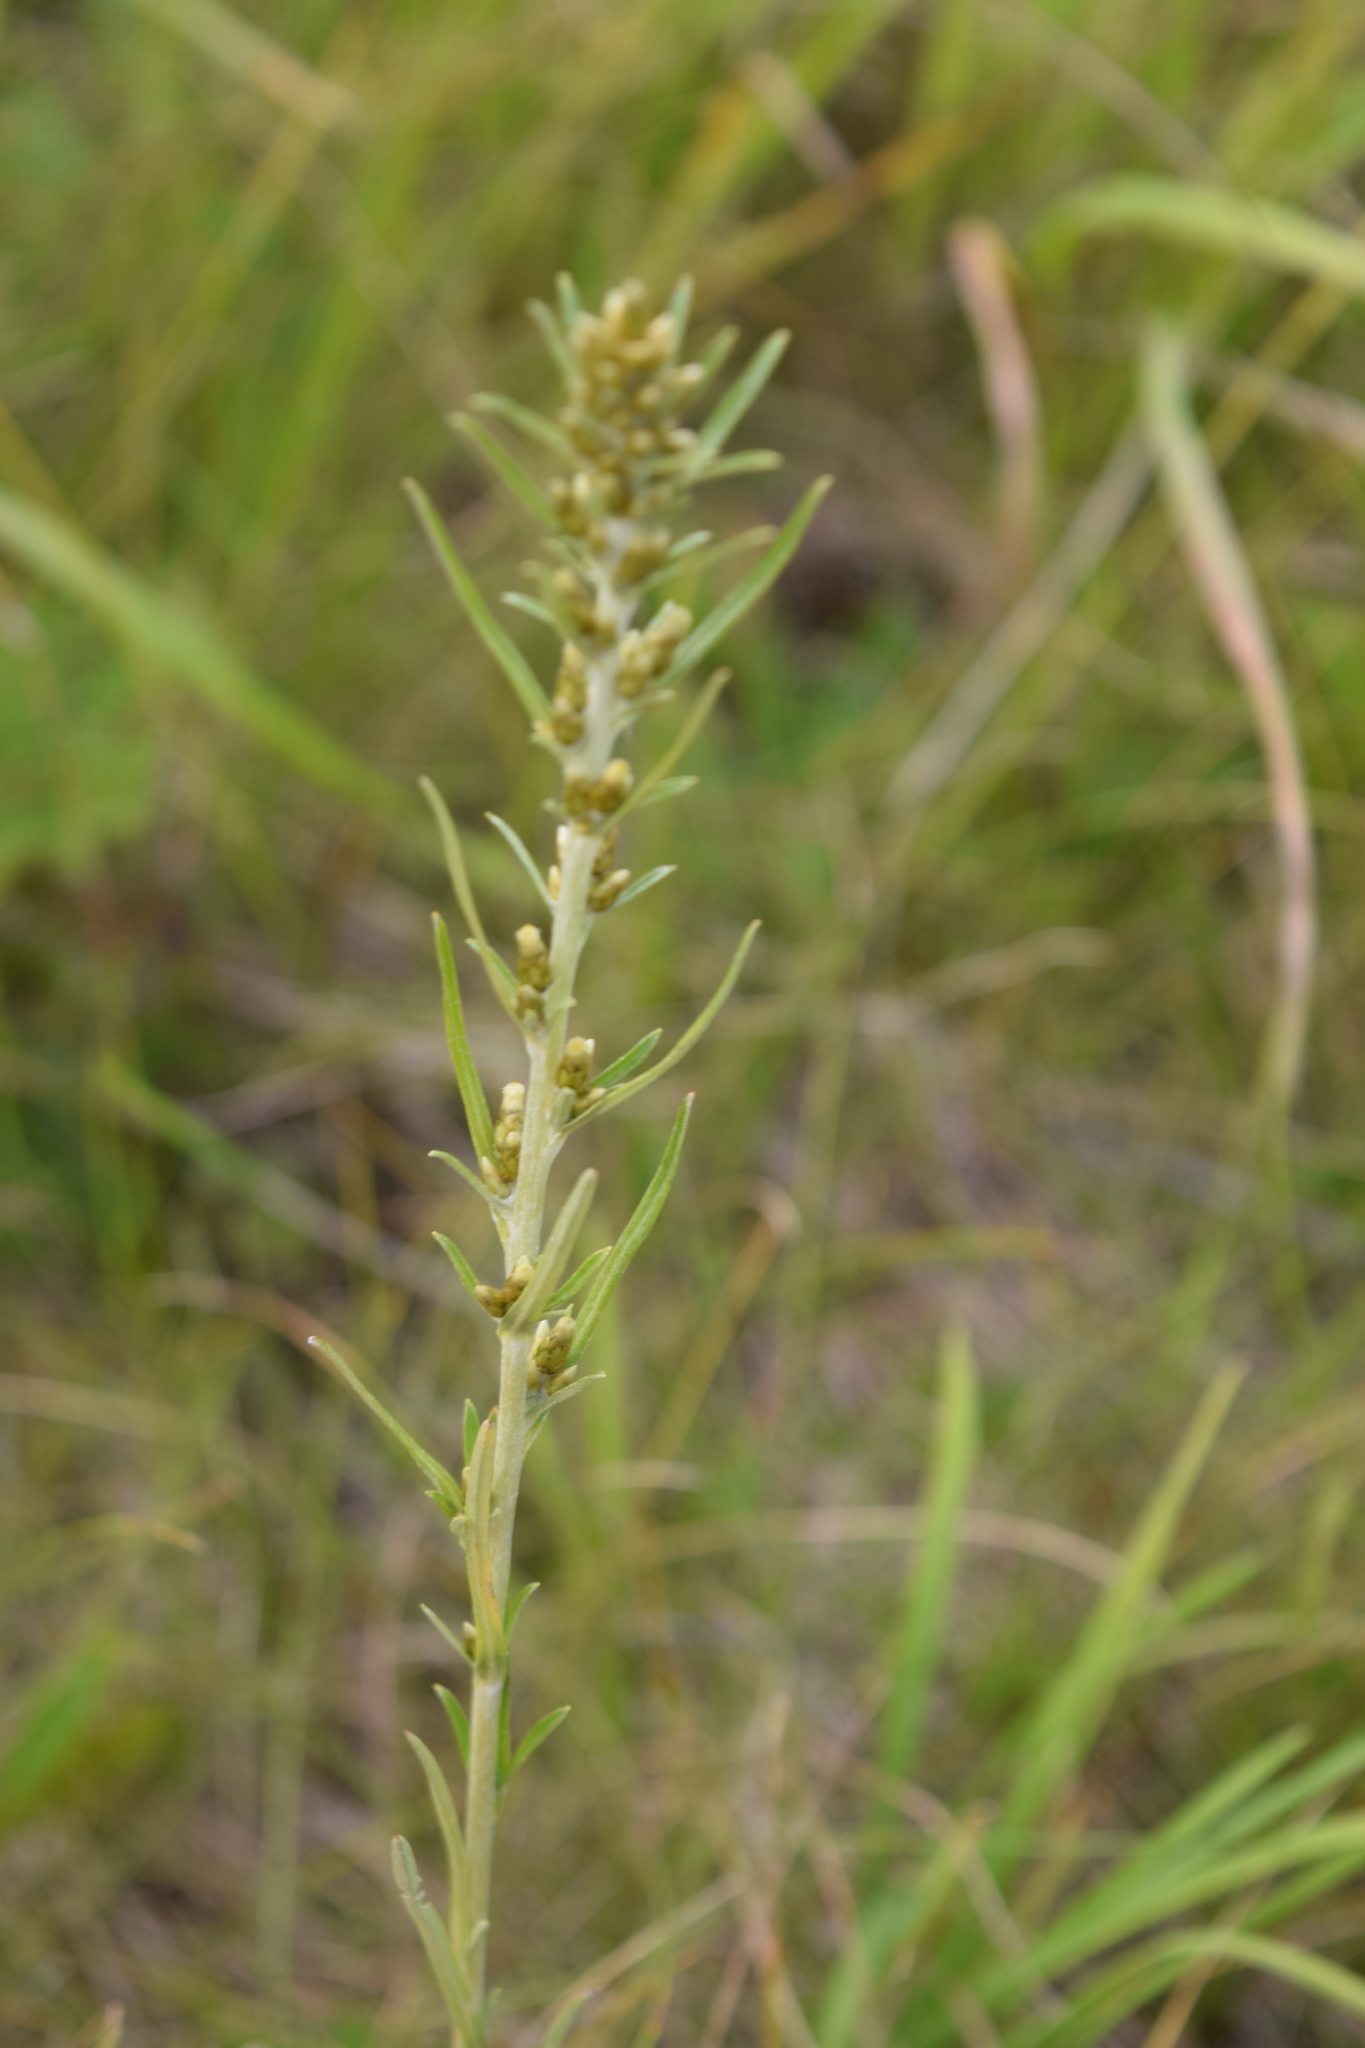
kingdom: Plantae
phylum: Tracheophyta
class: Magnoliopsida
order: Asterales
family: Asteraceae
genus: Gnaphalium
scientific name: Gnaphalium uliginosum
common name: Marsh cudweed
